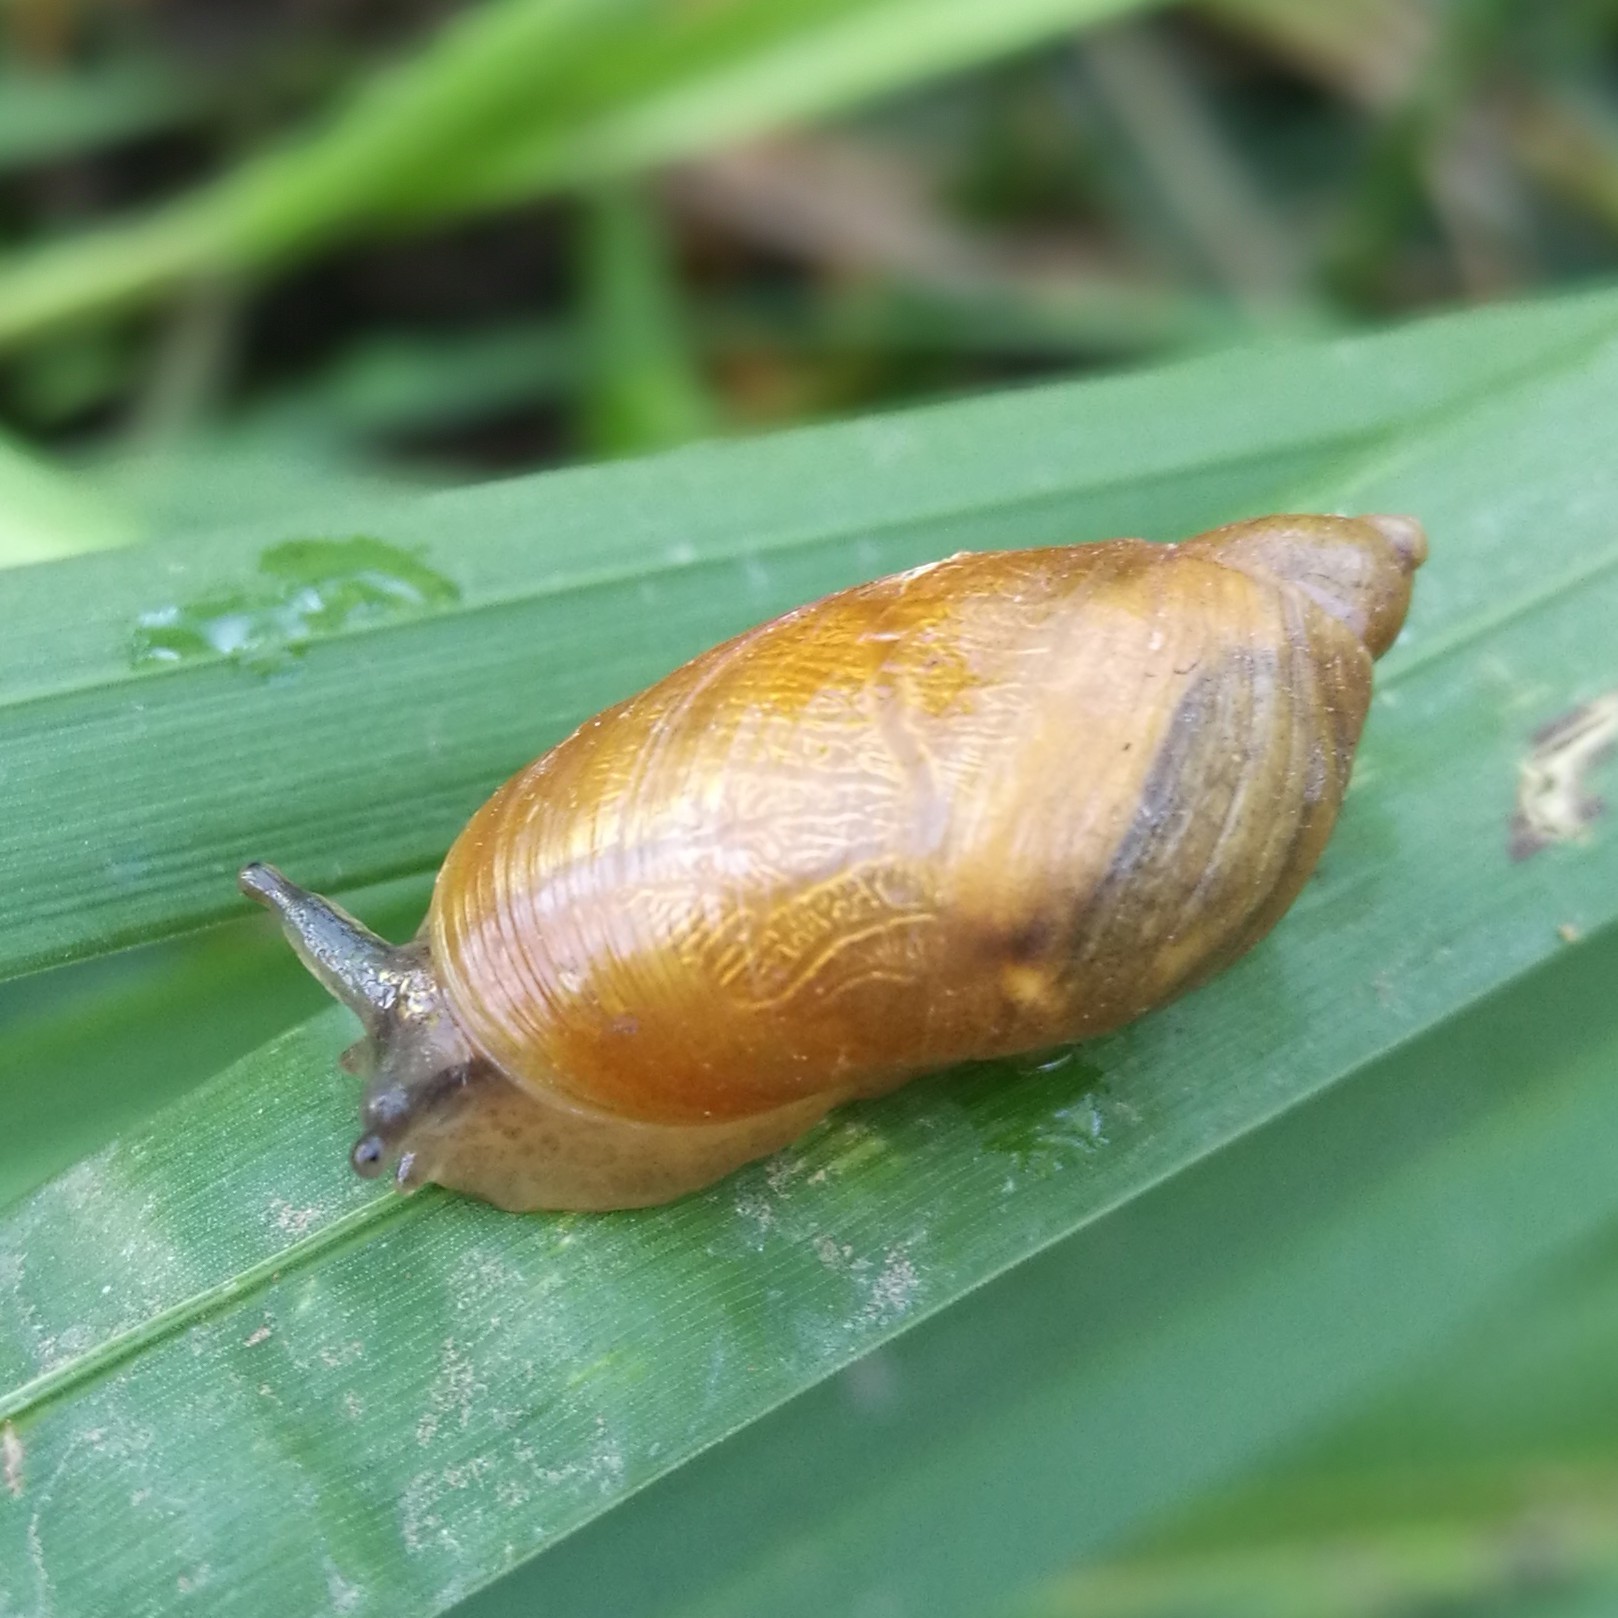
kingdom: Animalia
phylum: Mollusca
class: Gastropoda
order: Stylommatophora
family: Succineidae
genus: Succinea
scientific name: Succinea putris
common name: European ambersnail
